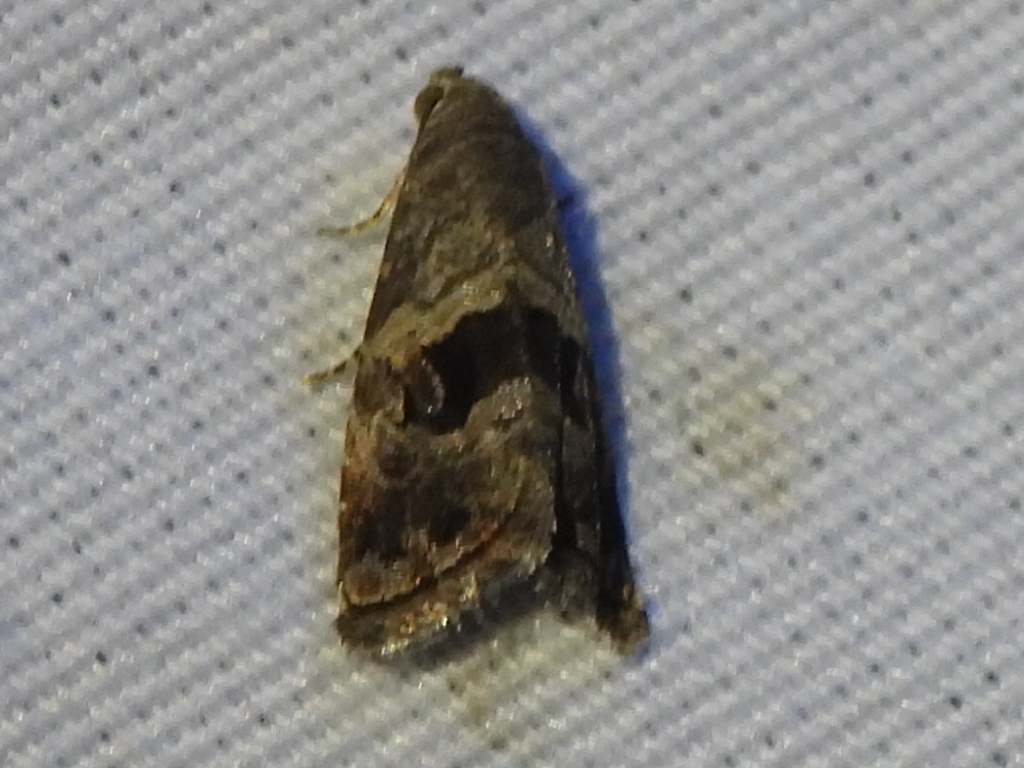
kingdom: Animalia
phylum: Arthropoda
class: Insecta
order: Lepidoptera
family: Noctuidae
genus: Tripudia
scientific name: Tripudia quadrifera
